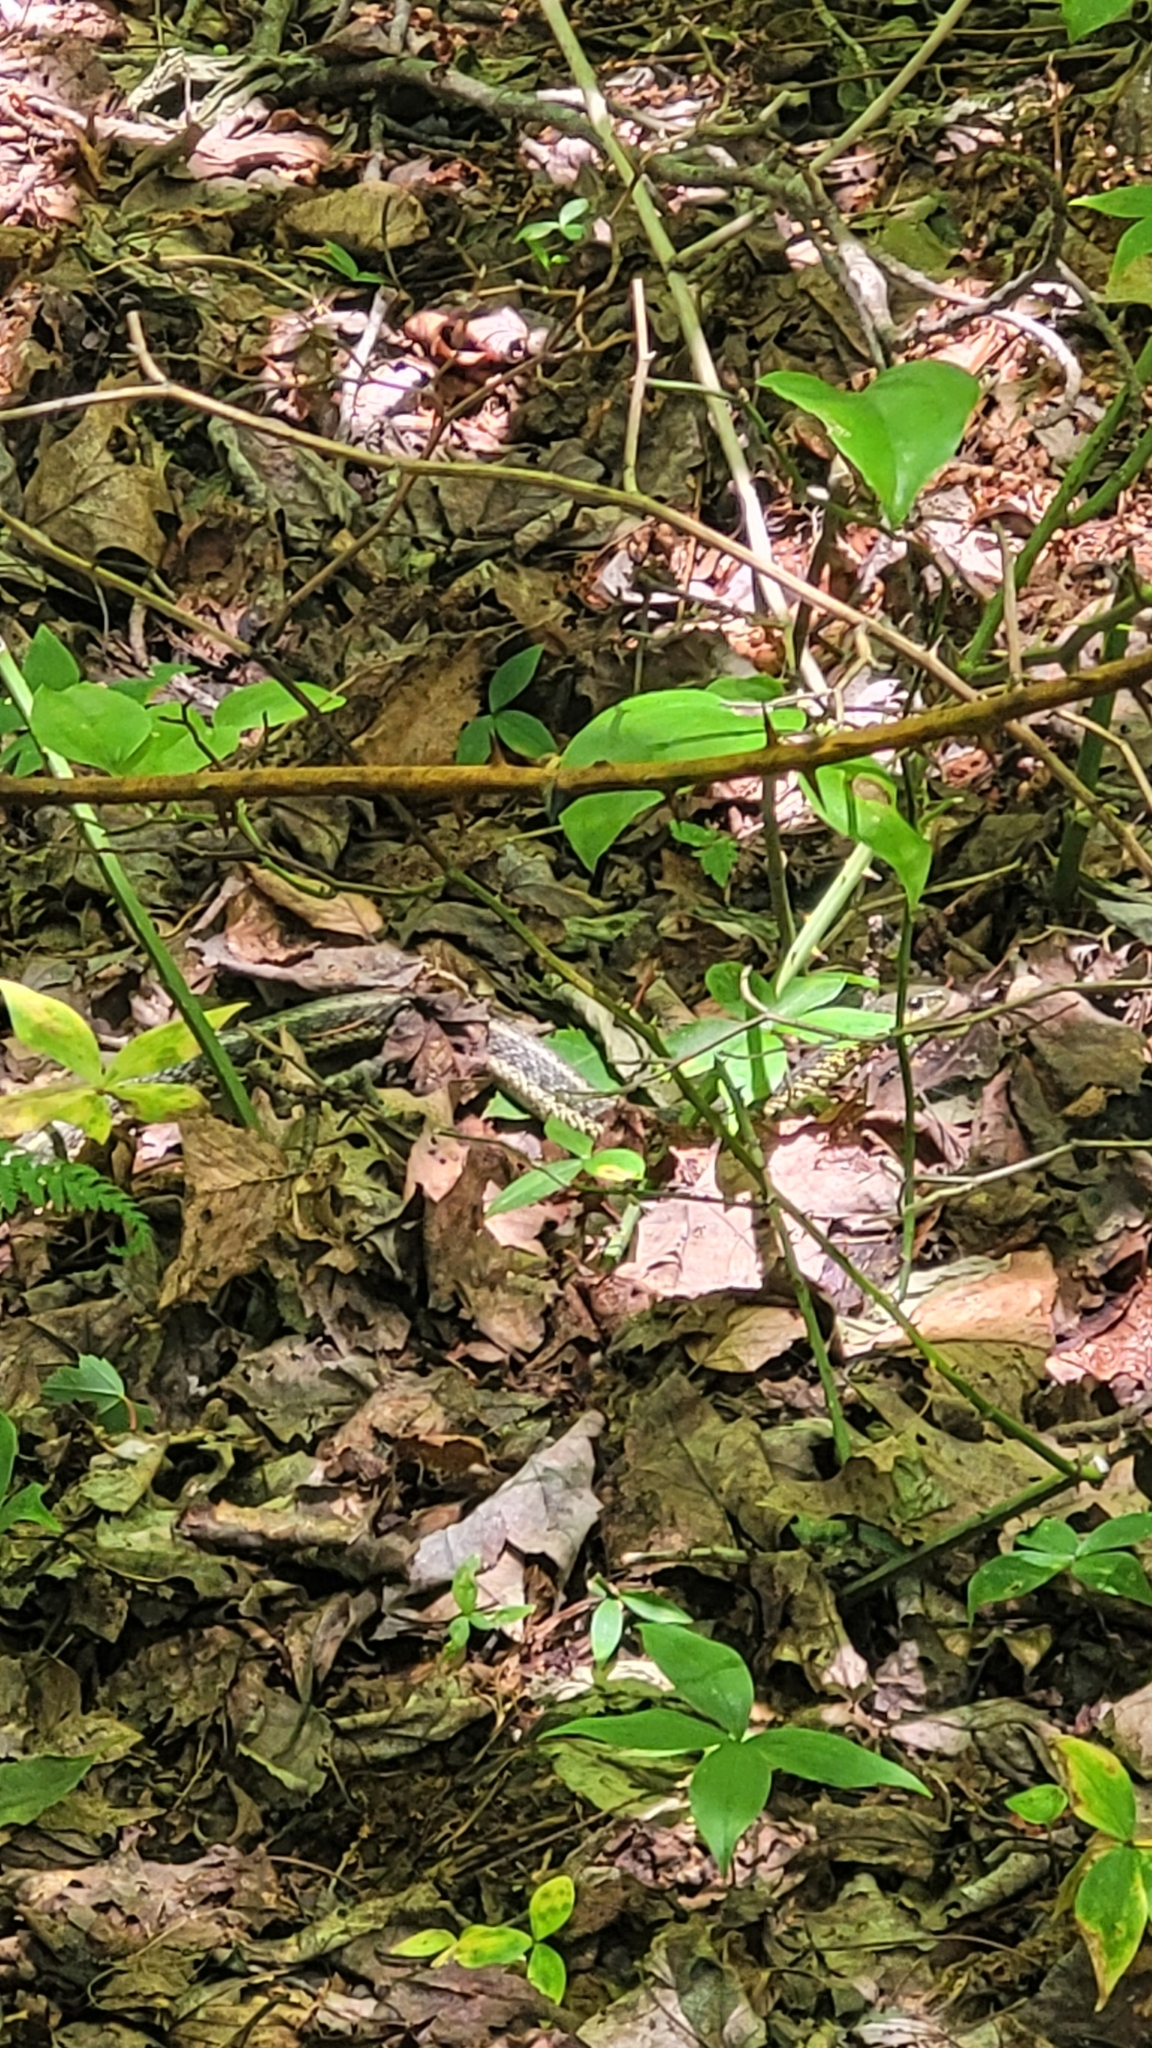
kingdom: Animalia
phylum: Chordata
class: Squamata
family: Colubridae
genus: Thamnophis
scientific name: Thamnophis sirtalis
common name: Common garter snake
